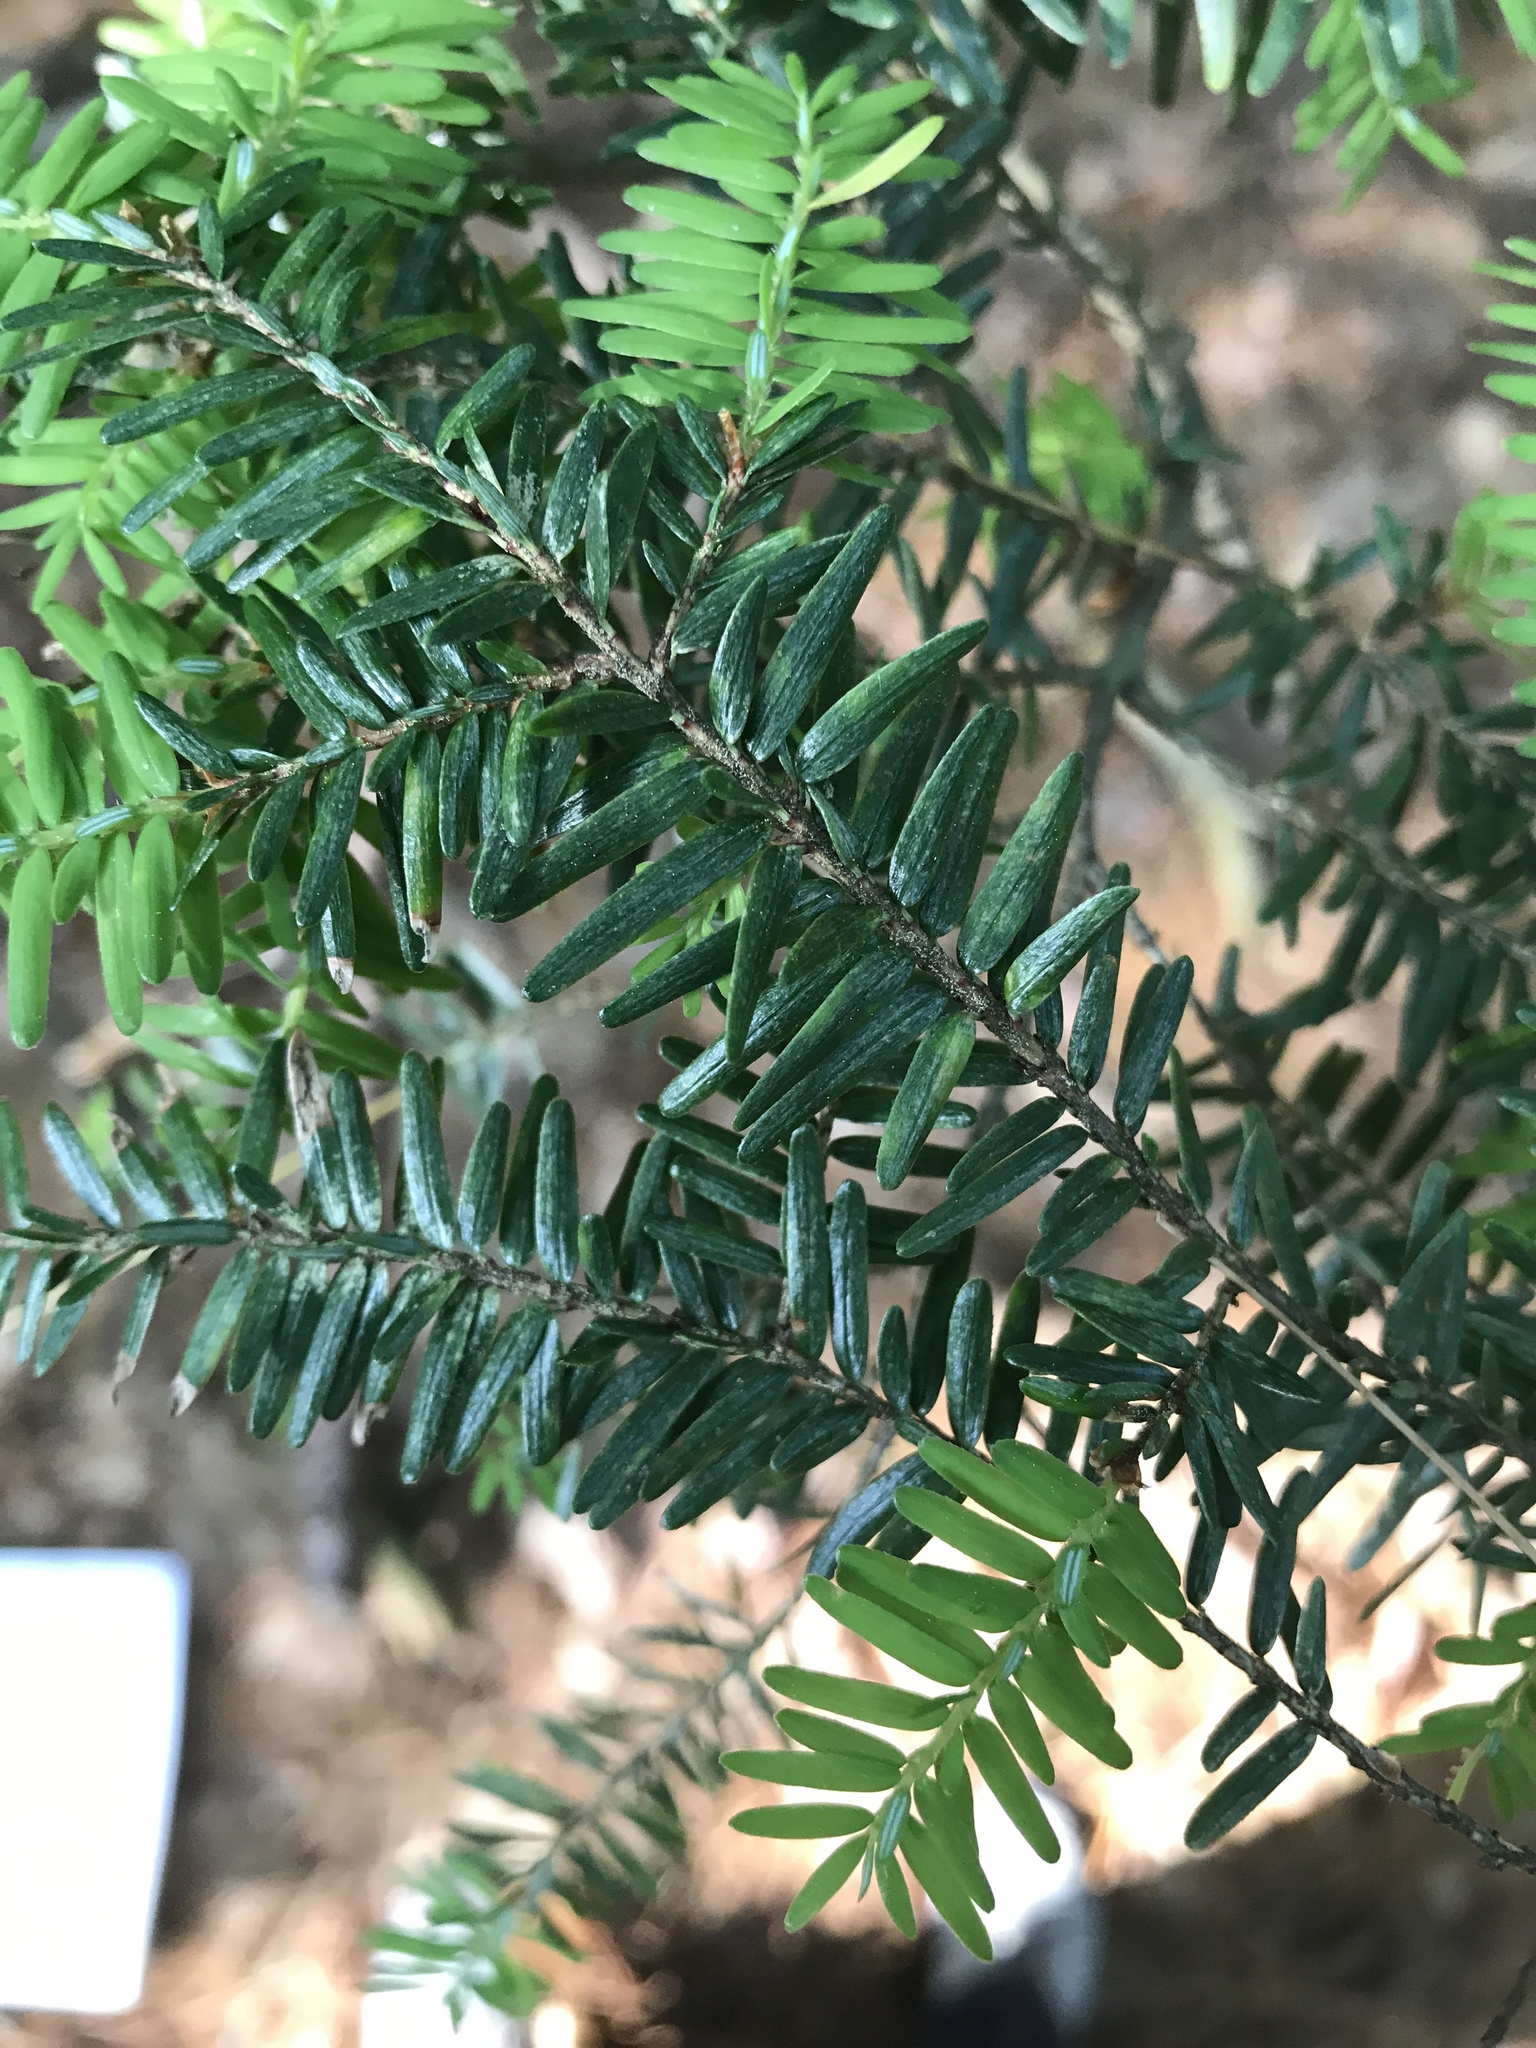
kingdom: Plantae
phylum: Tracheophyta
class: Pinopsida
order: Pinales
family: Pinaceae
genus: Tsuga
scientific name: Tsuga canadensis
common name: Eastern hemlock
